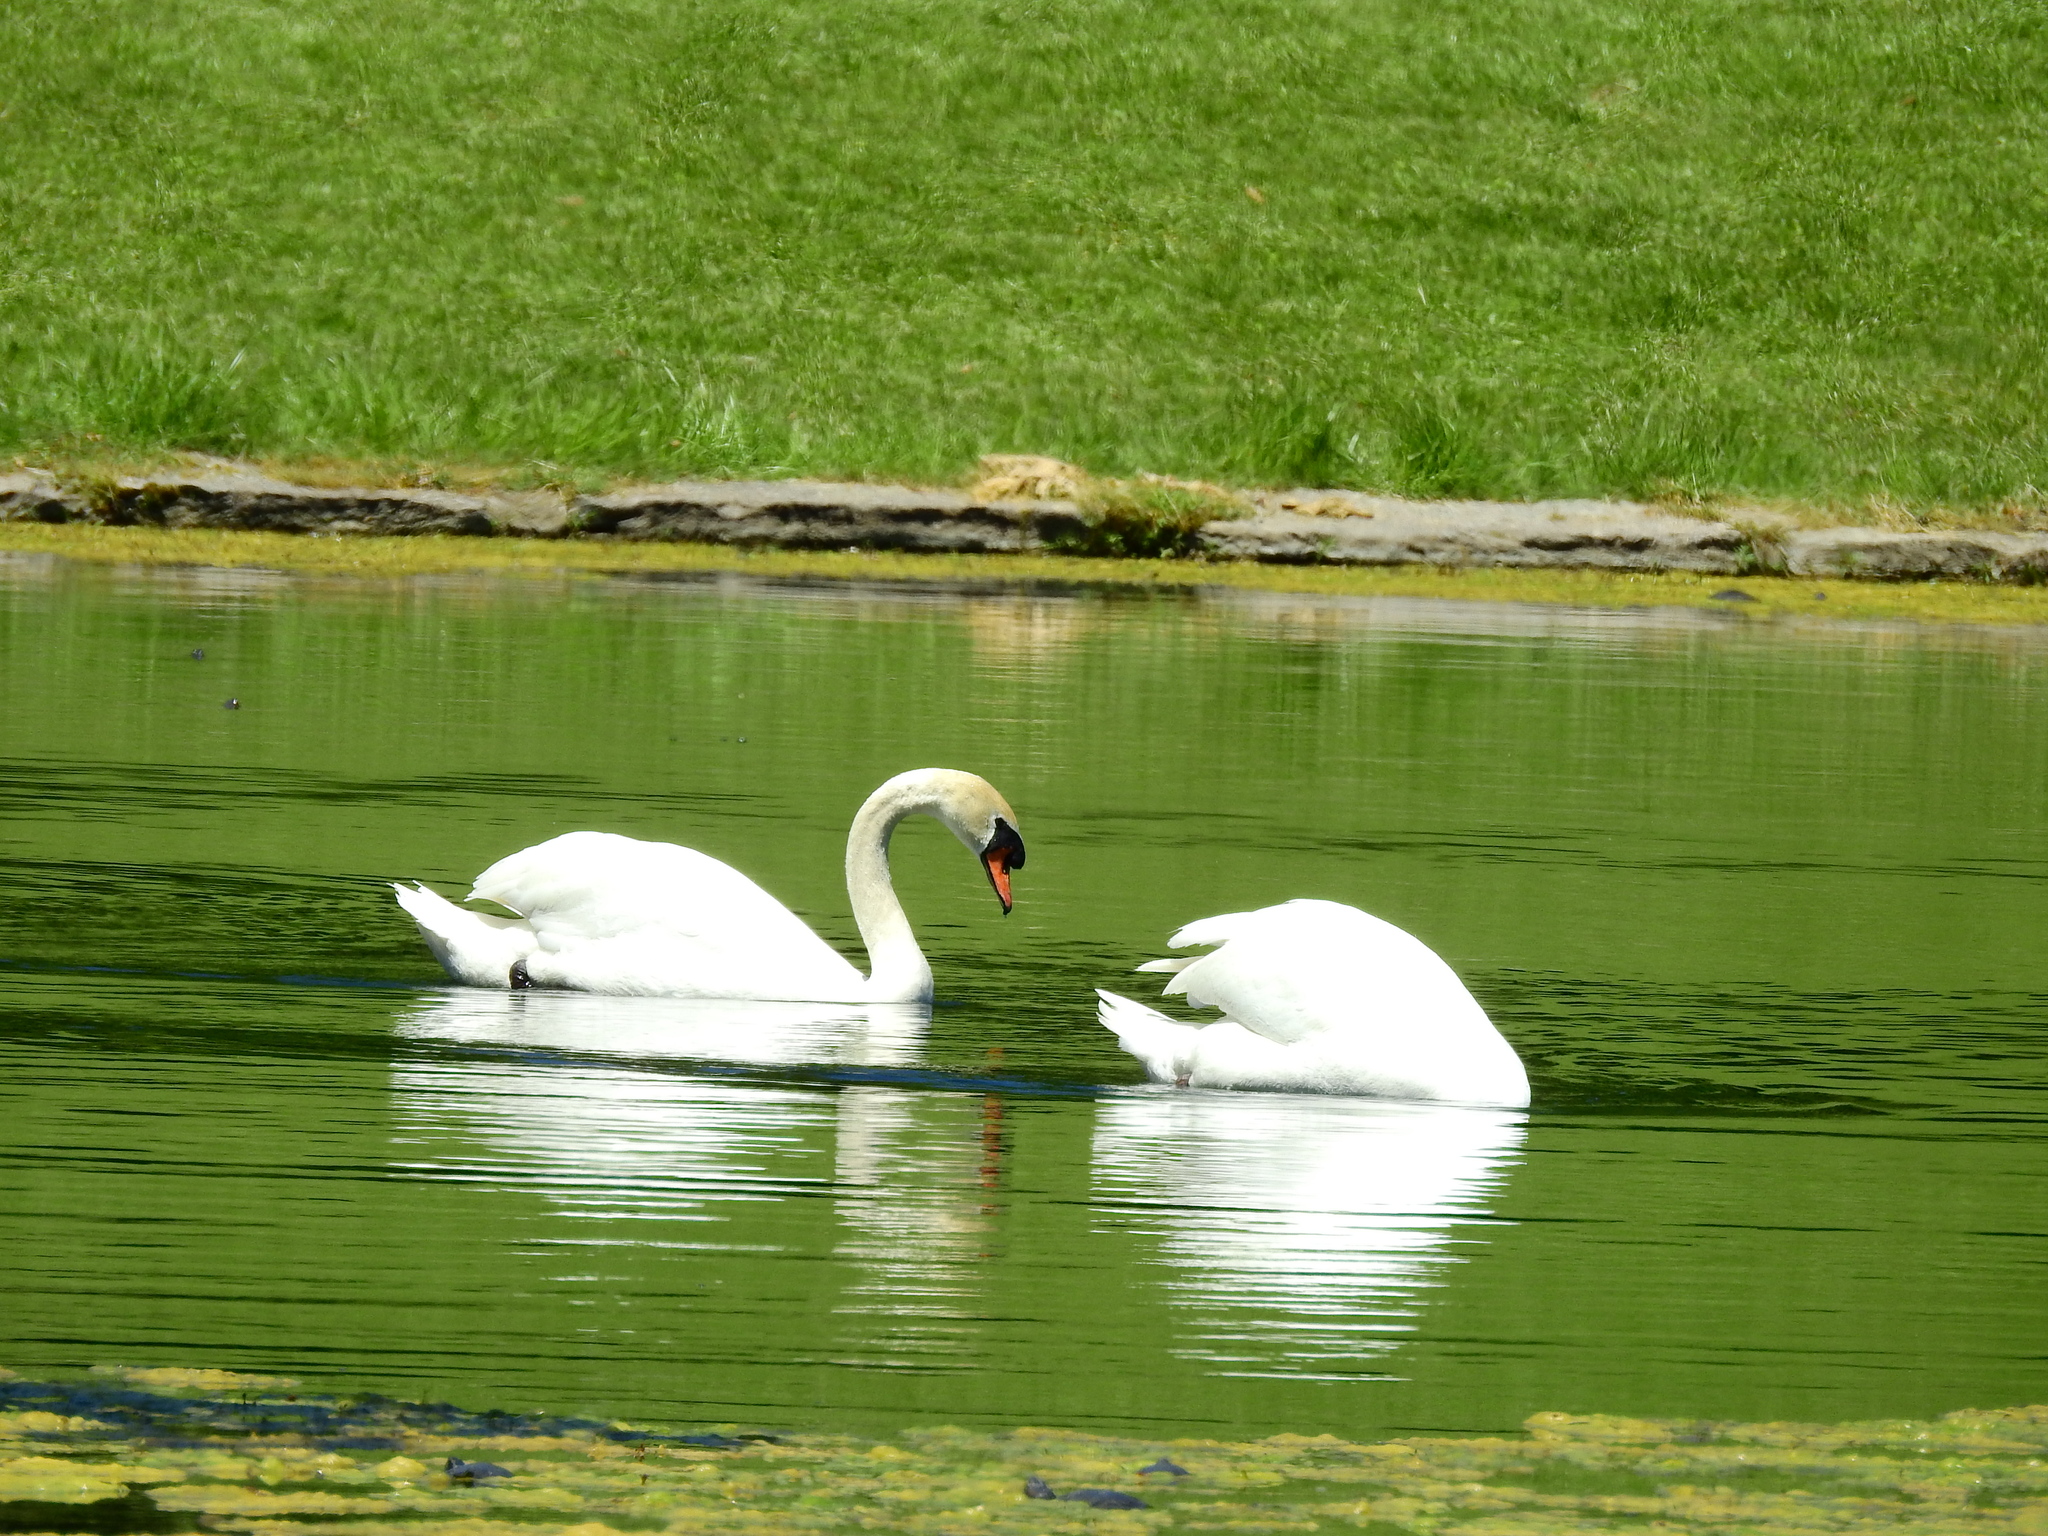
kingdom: Animalia
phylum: Chordata
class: Aves
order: Anseriformes
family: Anatidae
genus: Cygnus
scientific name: Cygnus olor
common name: Mute swan
